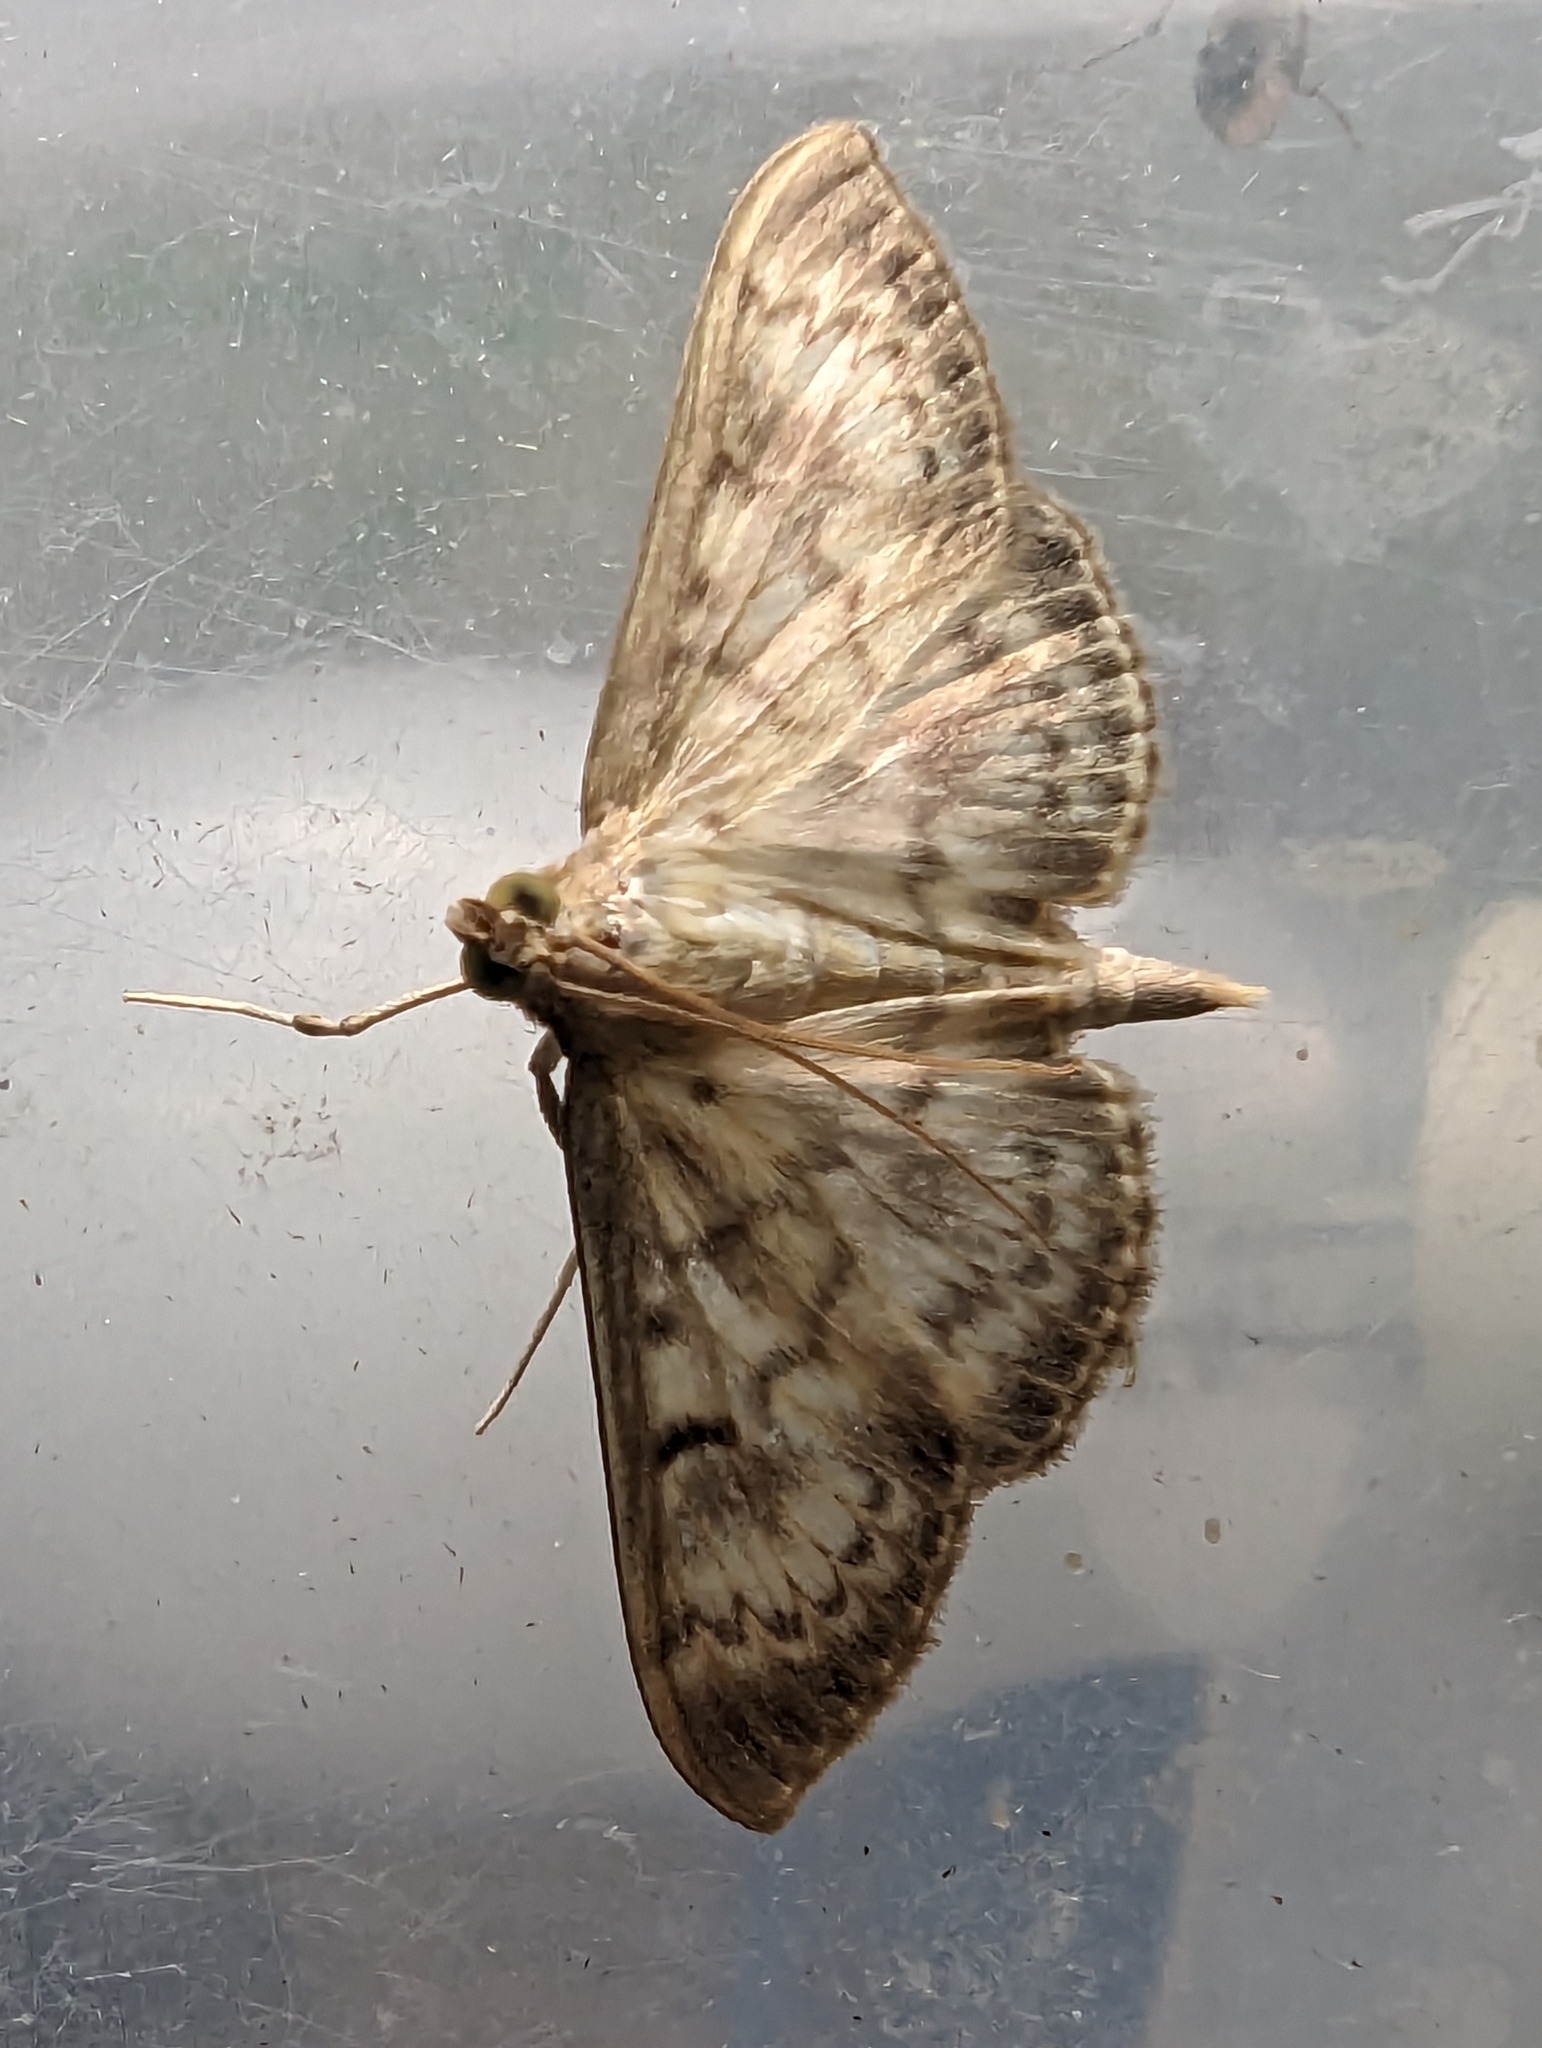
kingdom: Animalia
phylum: Arthropoda
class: Insecta
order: Lepidoptera
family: Crambidae
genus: Patania
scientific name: Patania ruralis
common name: Mother of pearl
